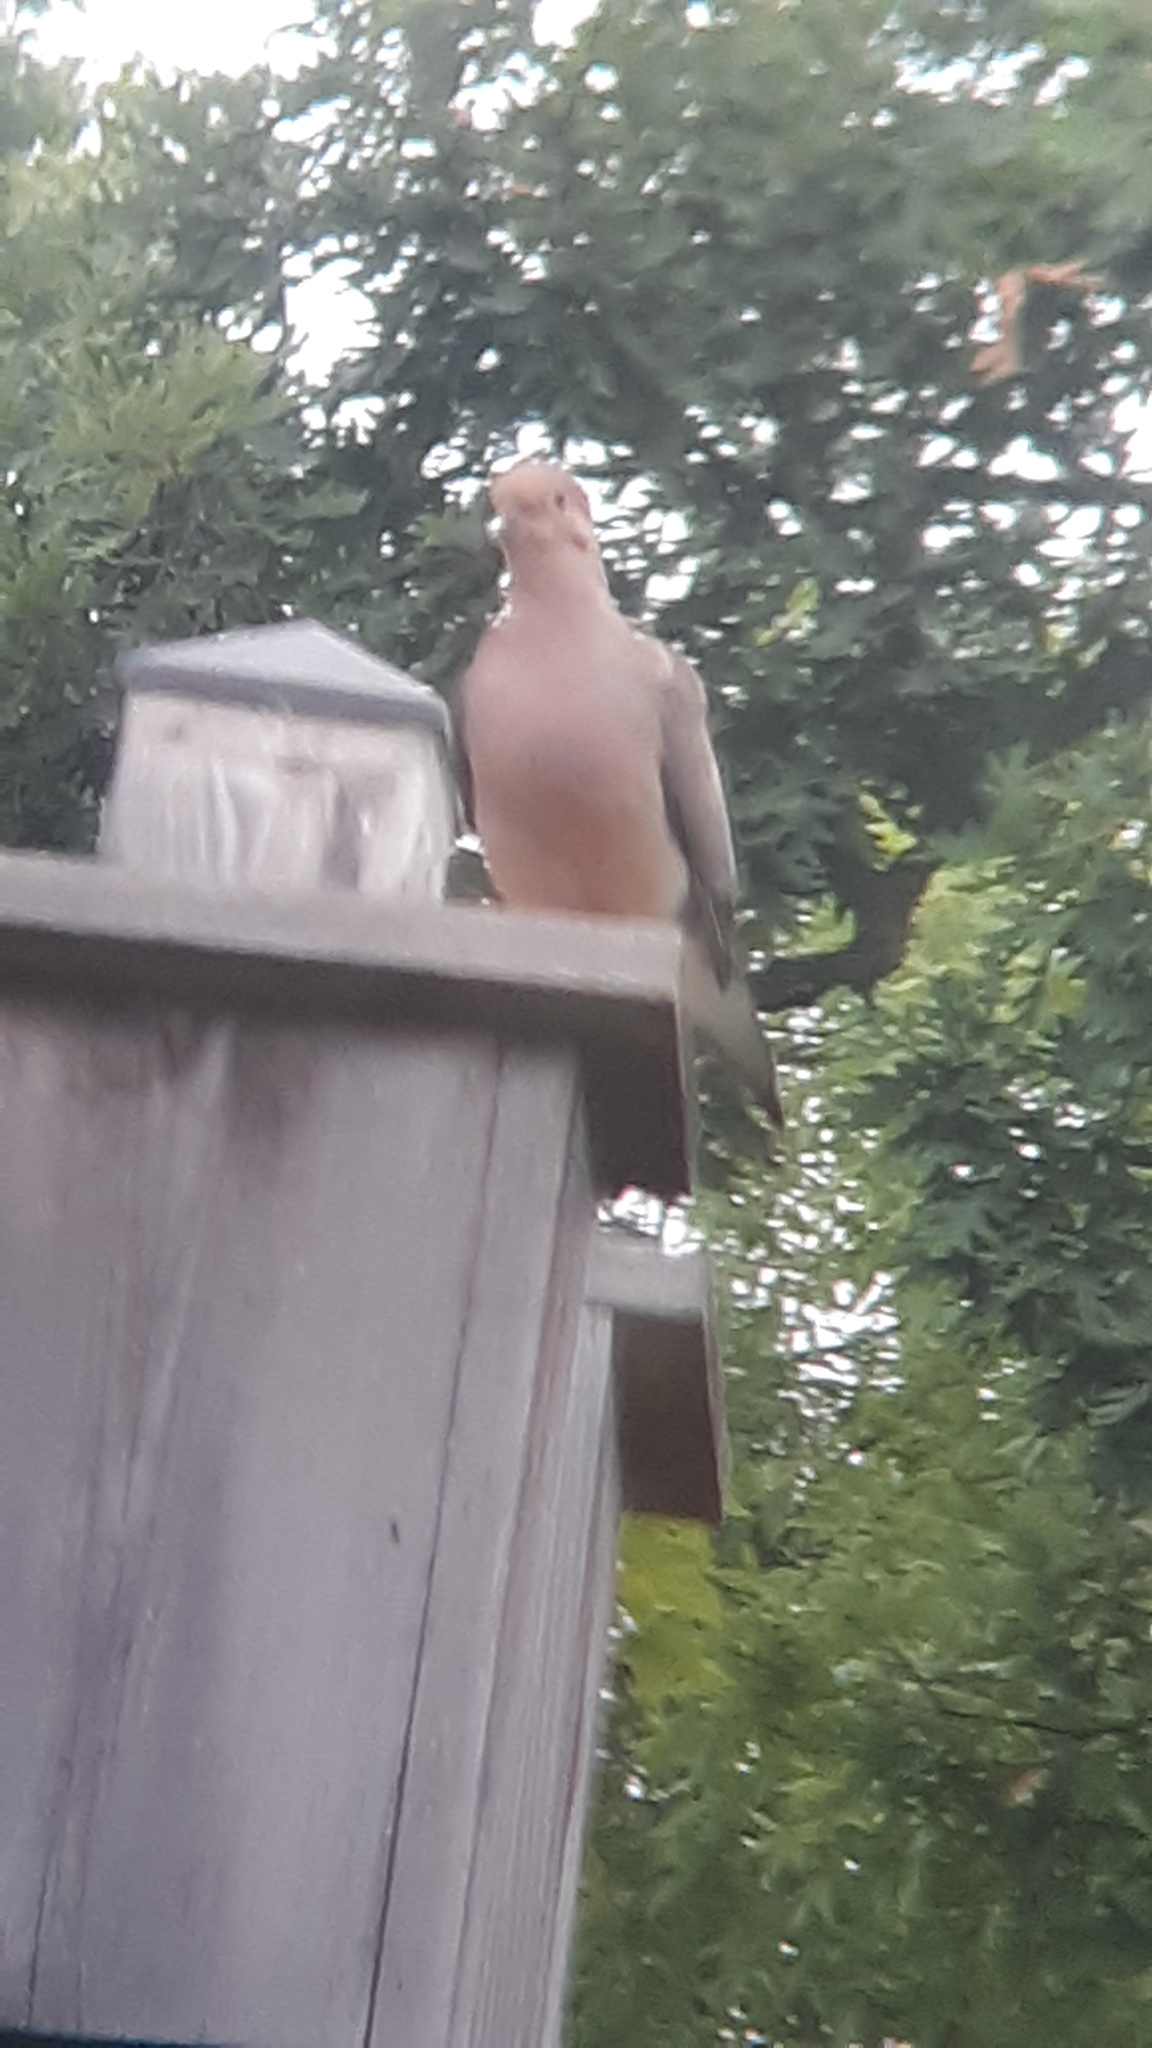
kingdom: Animalia
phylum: Chordata
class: Aves
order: Columbiformes
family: Columbidae
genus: Zenaida
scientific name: Zenaida macroura
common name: Mourning dove
